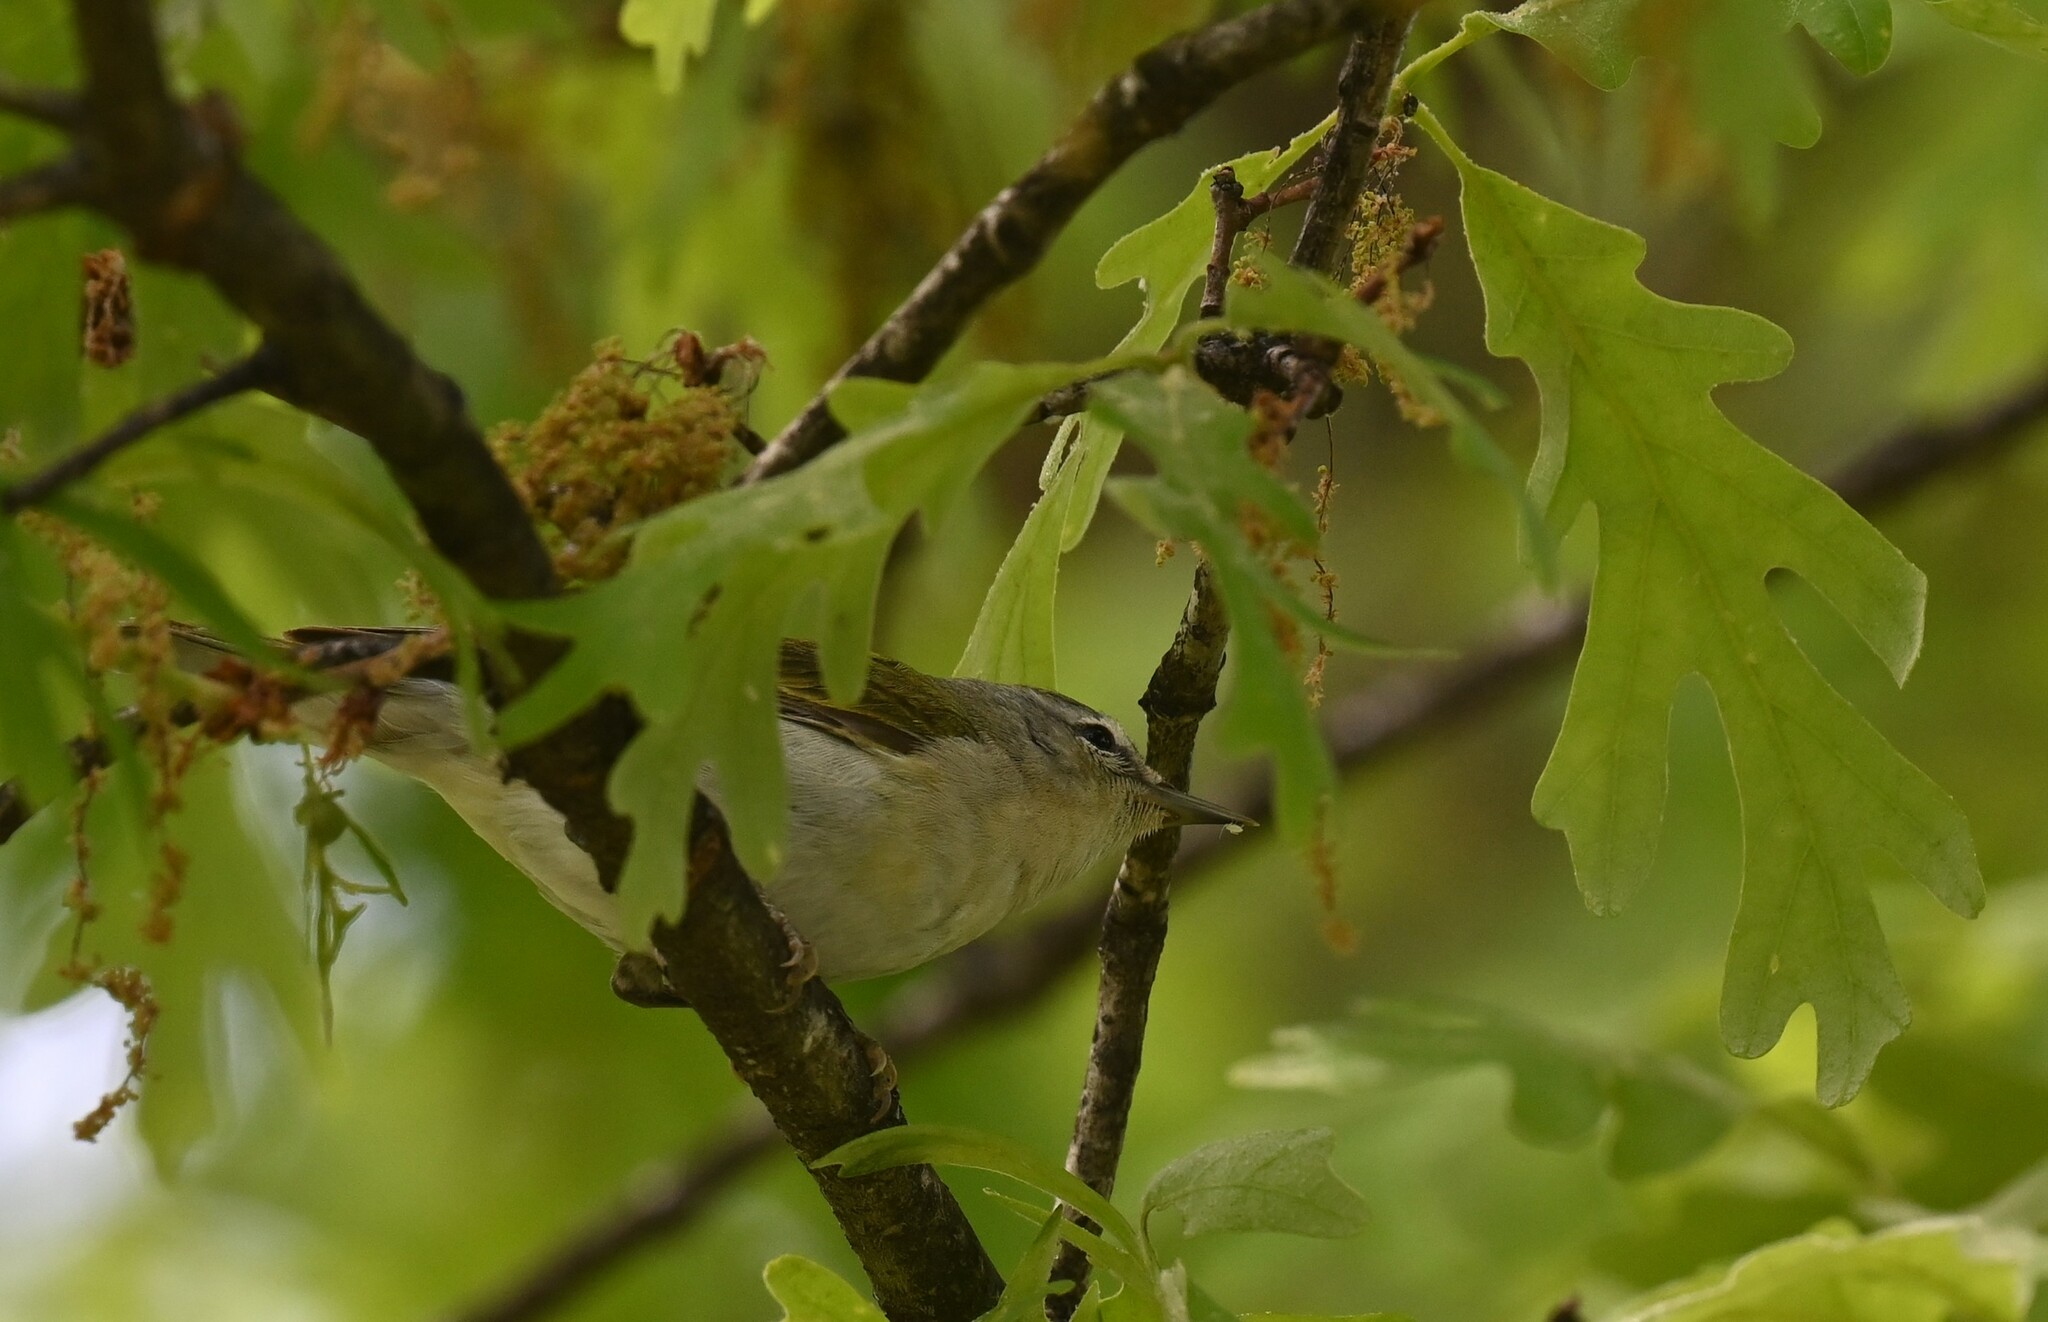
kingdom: Animalia
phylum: Chordata
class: Aves
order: Passeriformes
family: Parulidae
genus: Leiothlypis
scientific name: Leiothlypis peregrina
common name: Tennessee warbler
